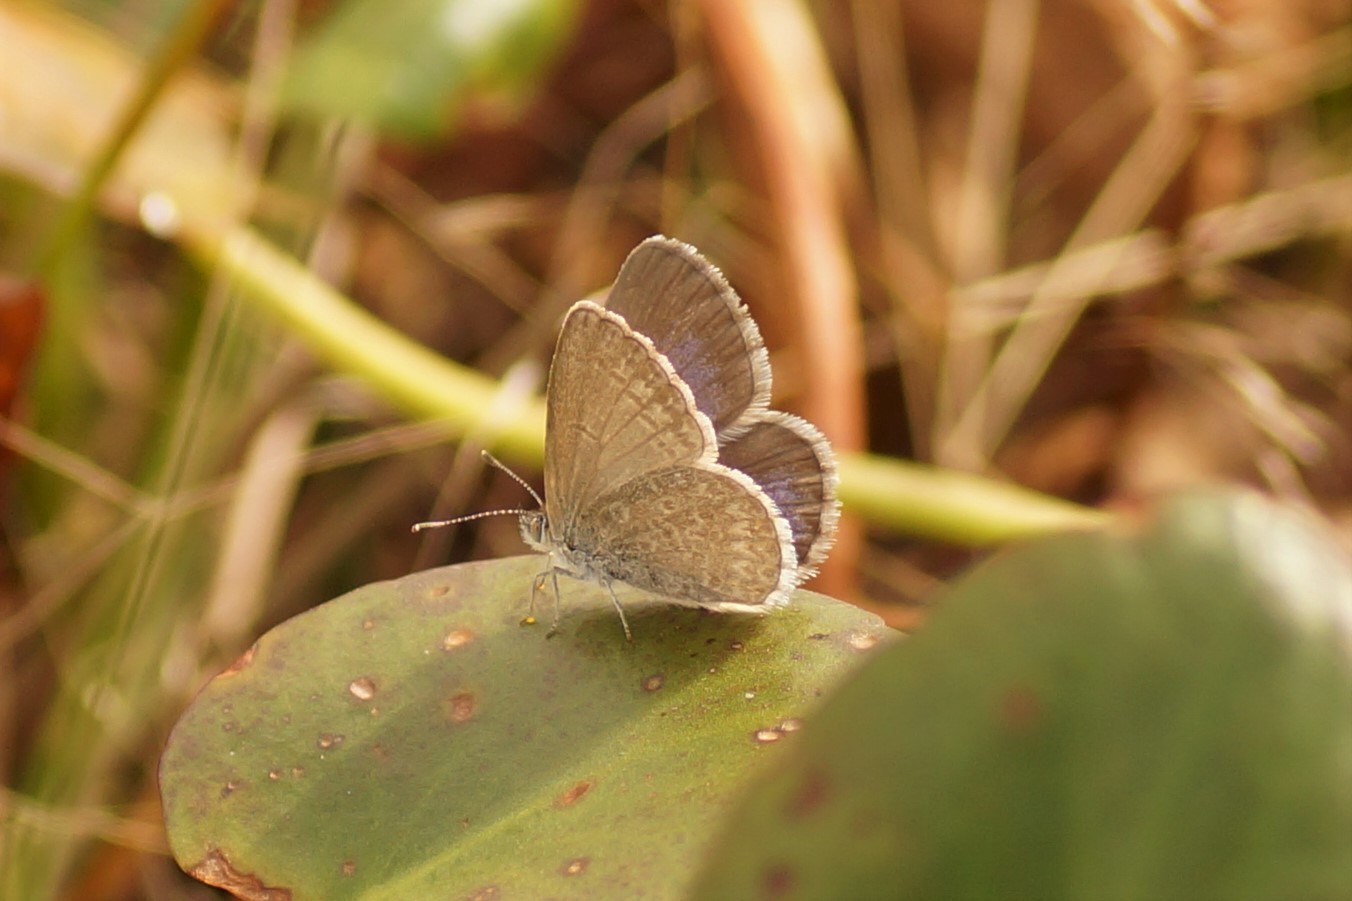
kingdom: Animalia
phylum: Arthropoda
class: Insecta
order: Lepidoptera
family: Lycaenidae
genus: Zizina
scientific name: Zizina labradus
